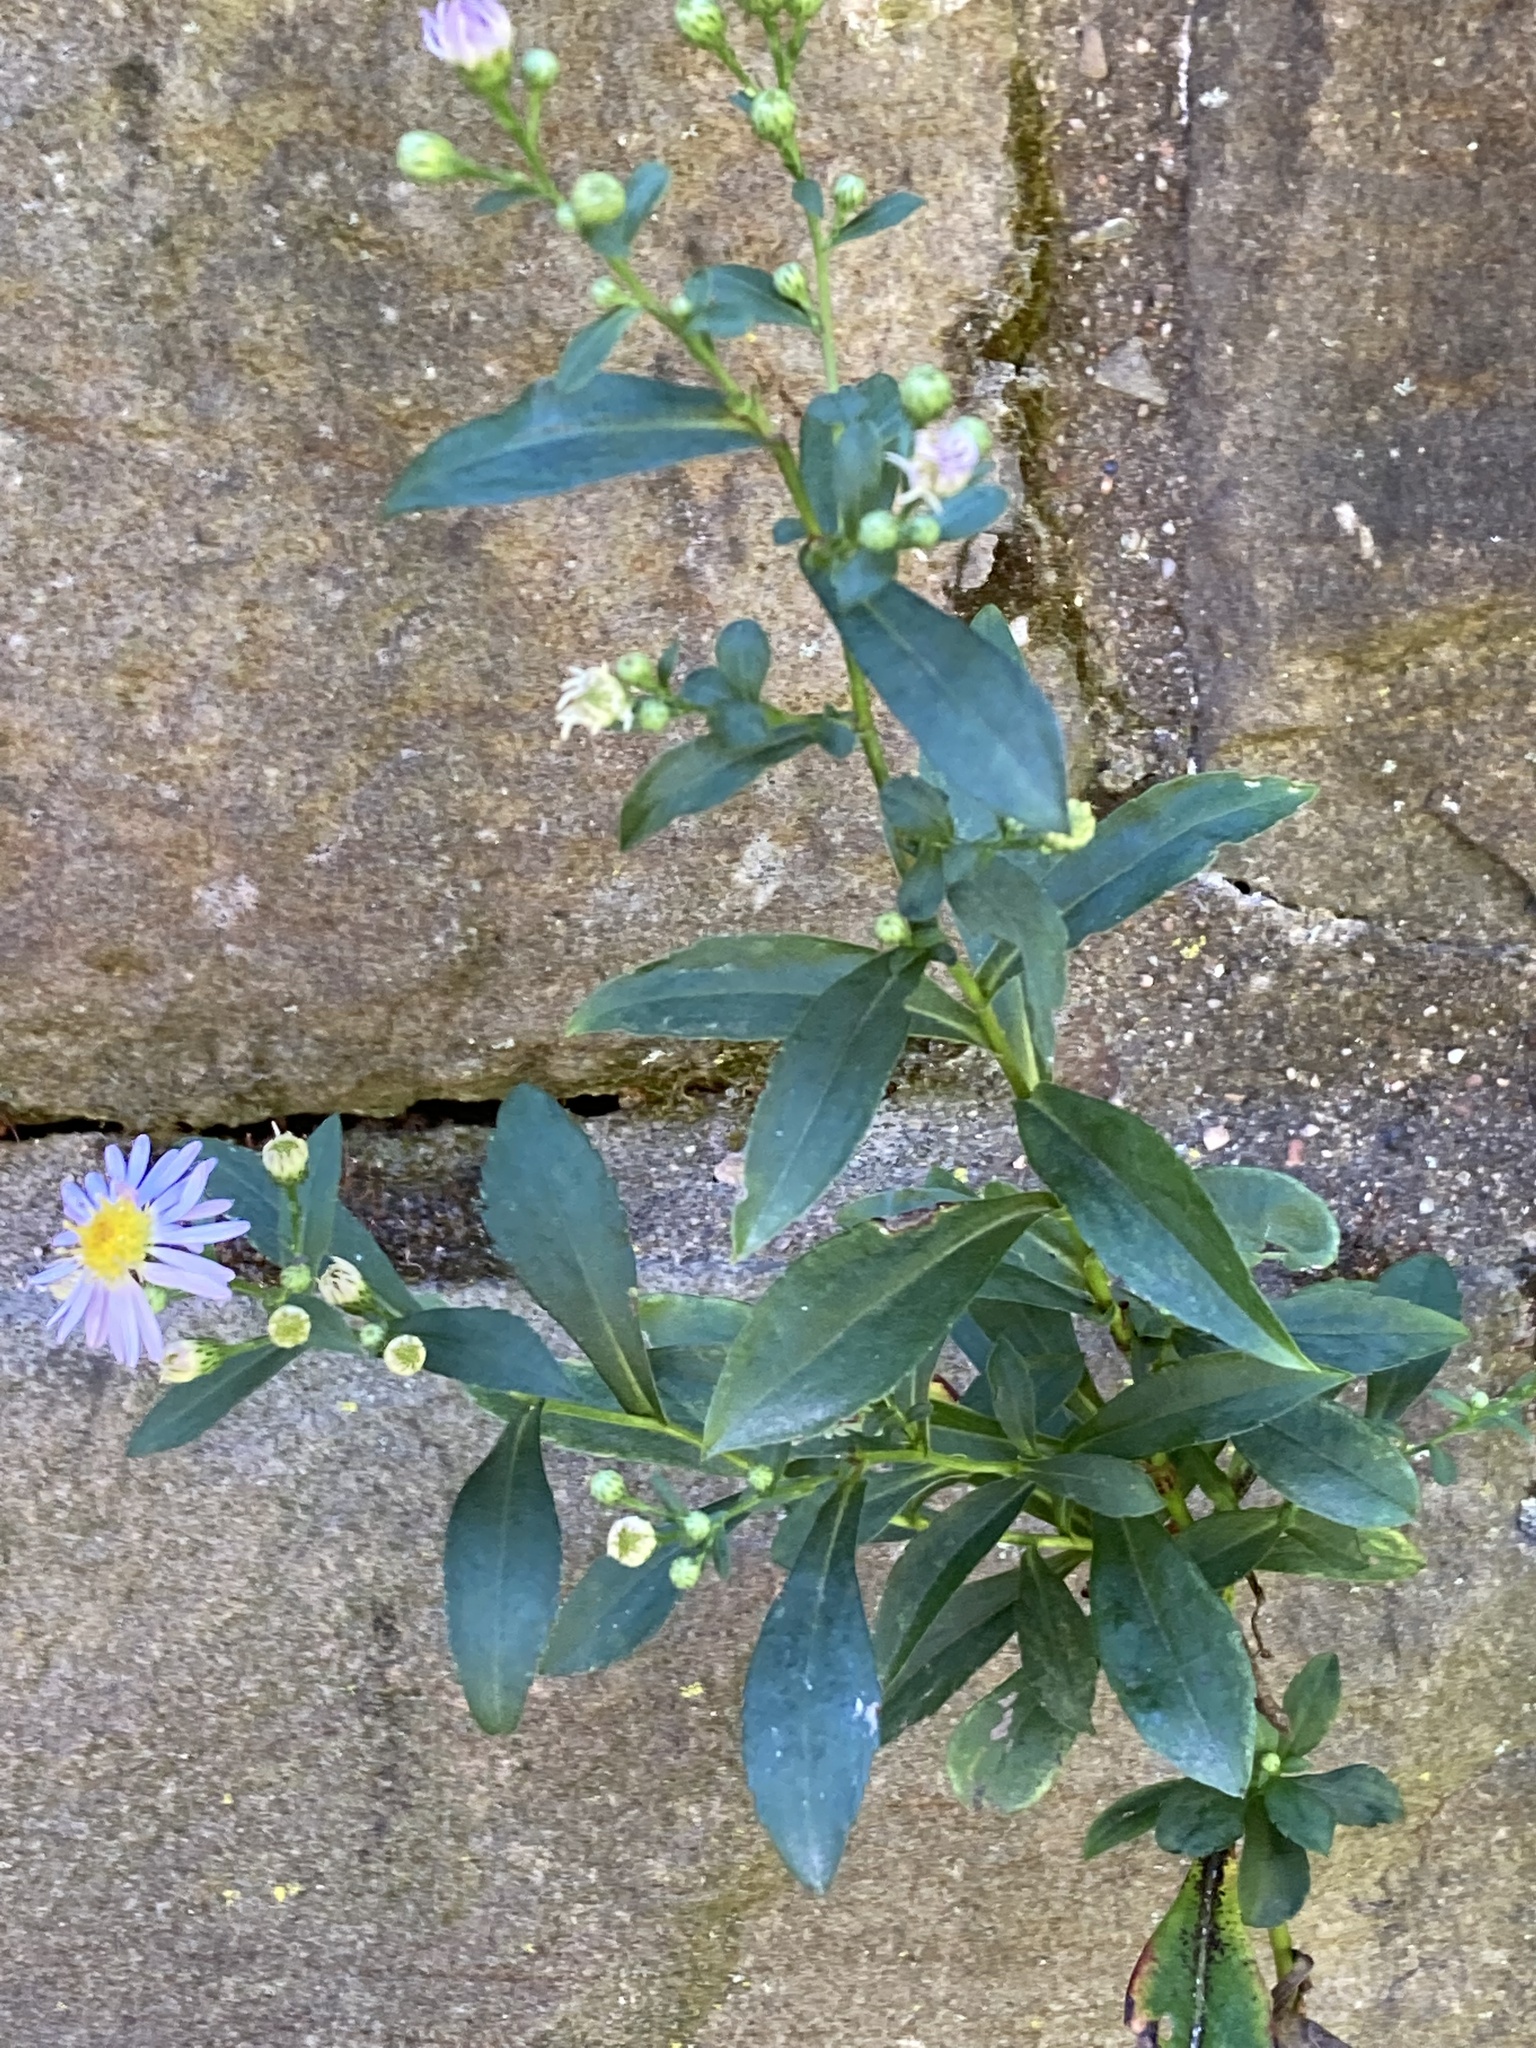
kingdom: Plantae
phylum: Tracheophyta
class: Magnoliopsida
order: Asterales
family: Asteraceae
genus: Symphyotrichum
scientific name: Symphyotrichum laeve
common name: Glaucous aster
